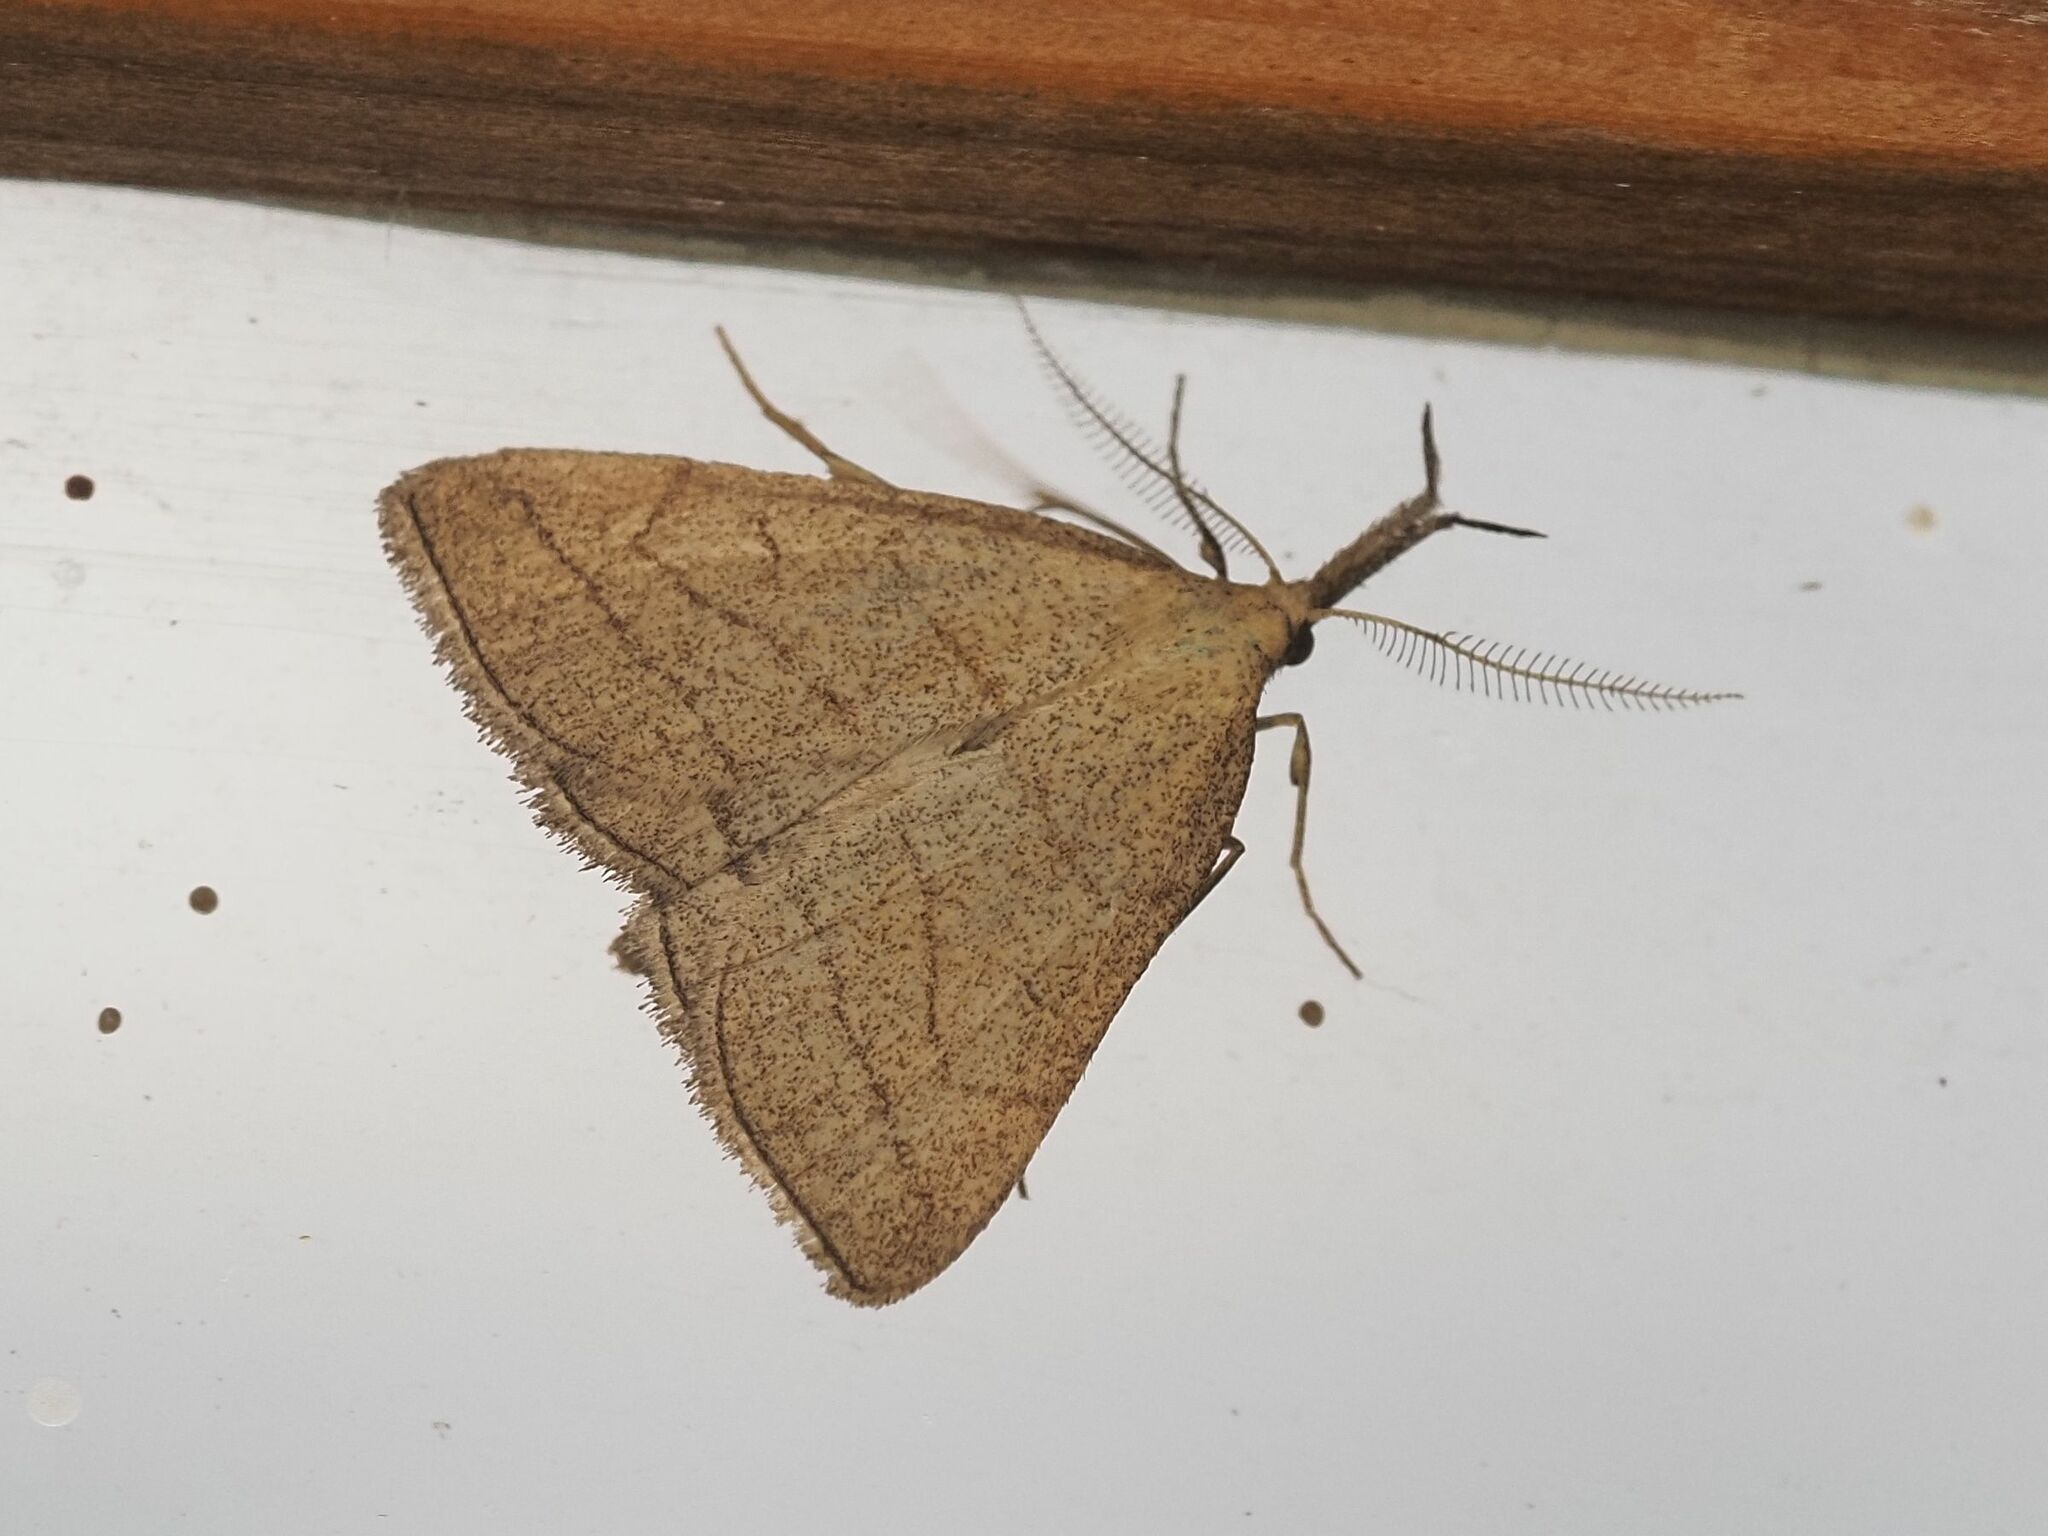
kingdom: Animalia
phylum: Arthropoda
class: Insecta
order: Lepidoptera
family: Erebidae
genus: Polypogon
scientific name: Polypogon tentacularia
